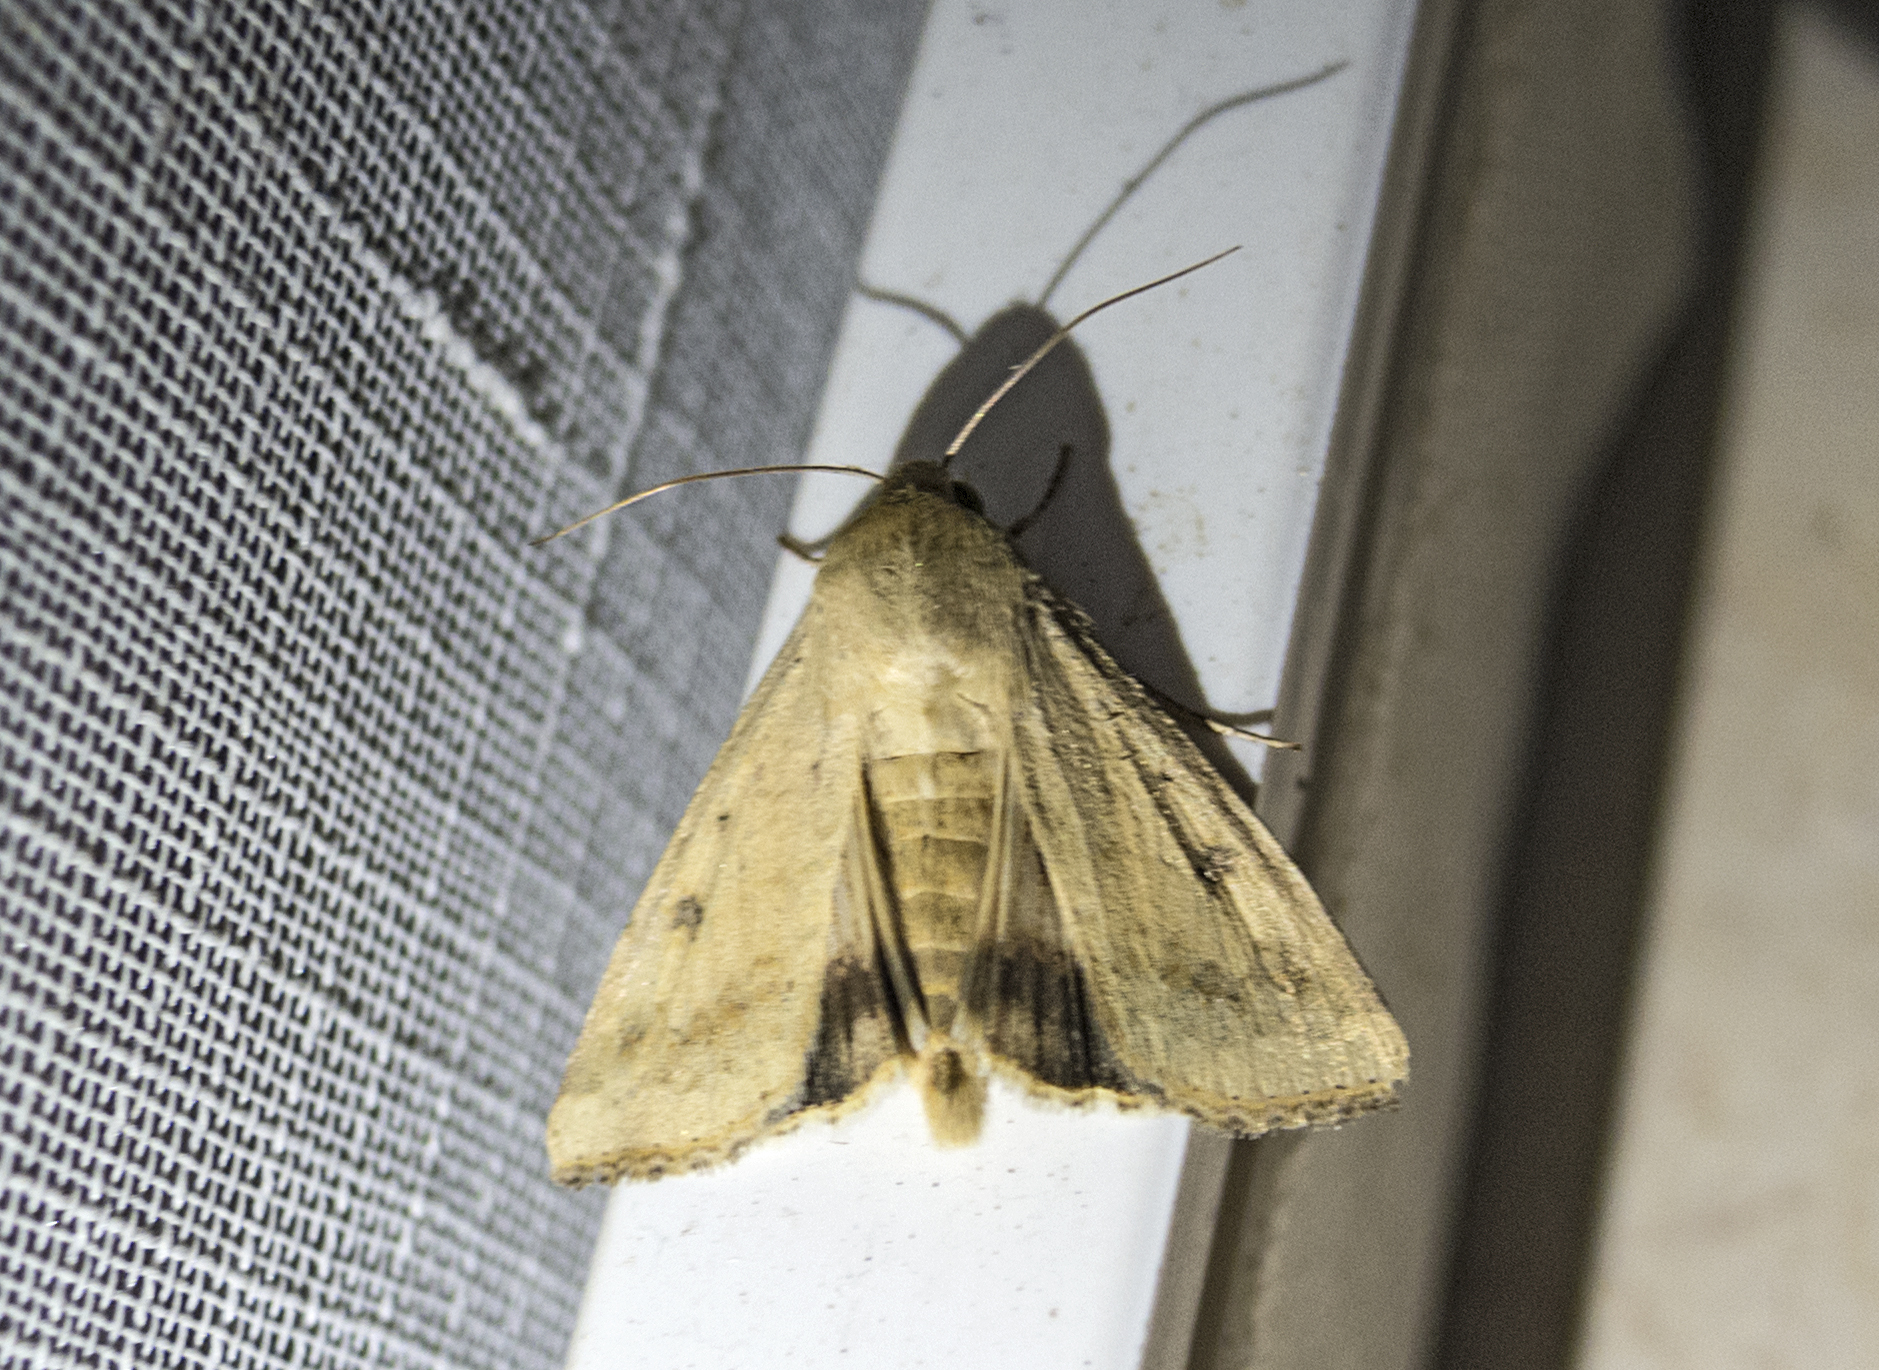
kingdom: Animalia
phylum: Arthropoda
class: Insecta
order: Lepidoptera
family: Noctuidae
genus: Helicoverpa
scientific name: Helicoverpa armigera
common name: Cotton bollworm
